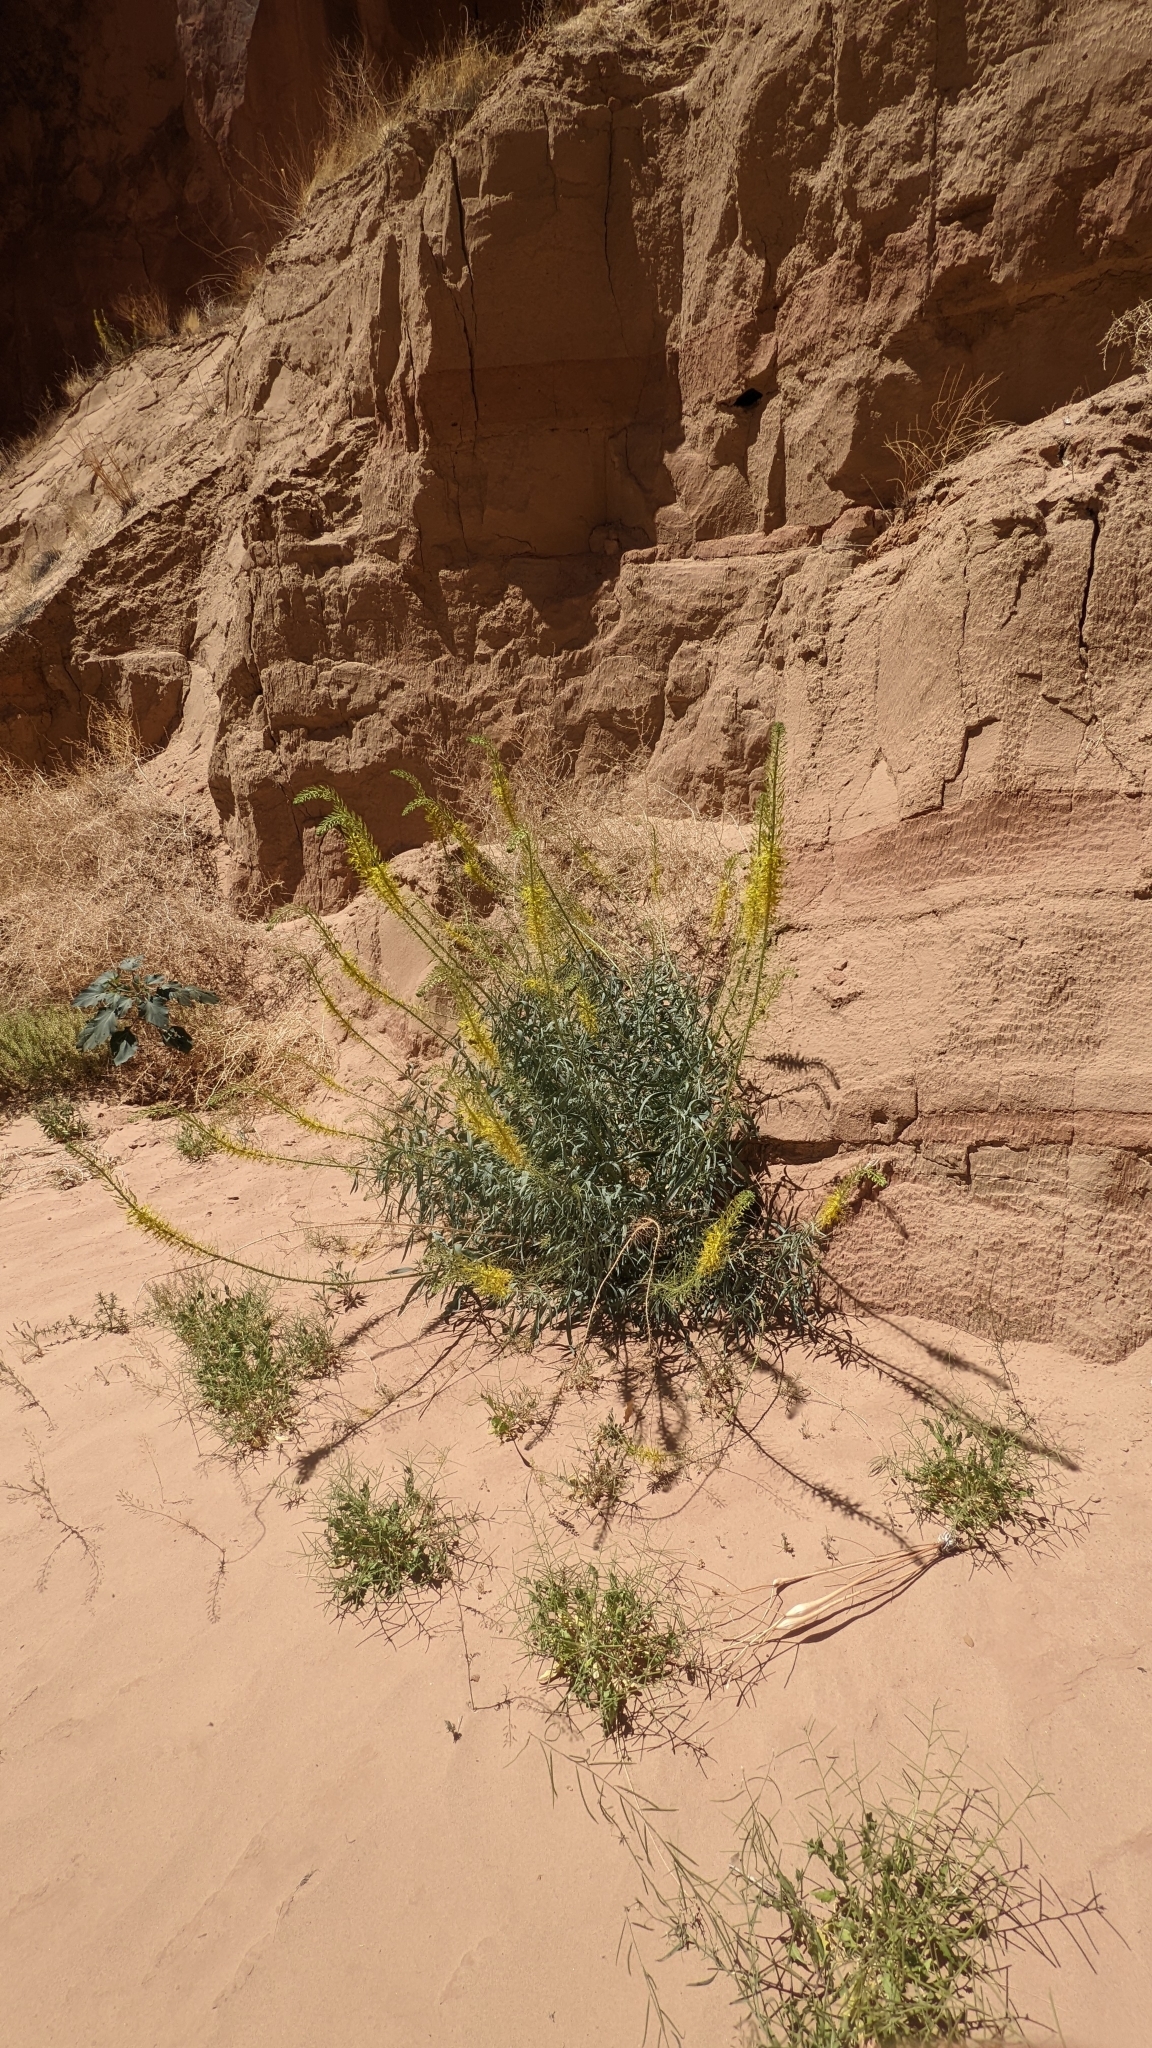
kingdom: Plantae
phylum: Tracheophyta
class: Magnoliopsida
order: Brassicales
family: Brassicaceae
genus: Stanleya
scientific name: Stanleya pinnata
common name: Prince's-plume
